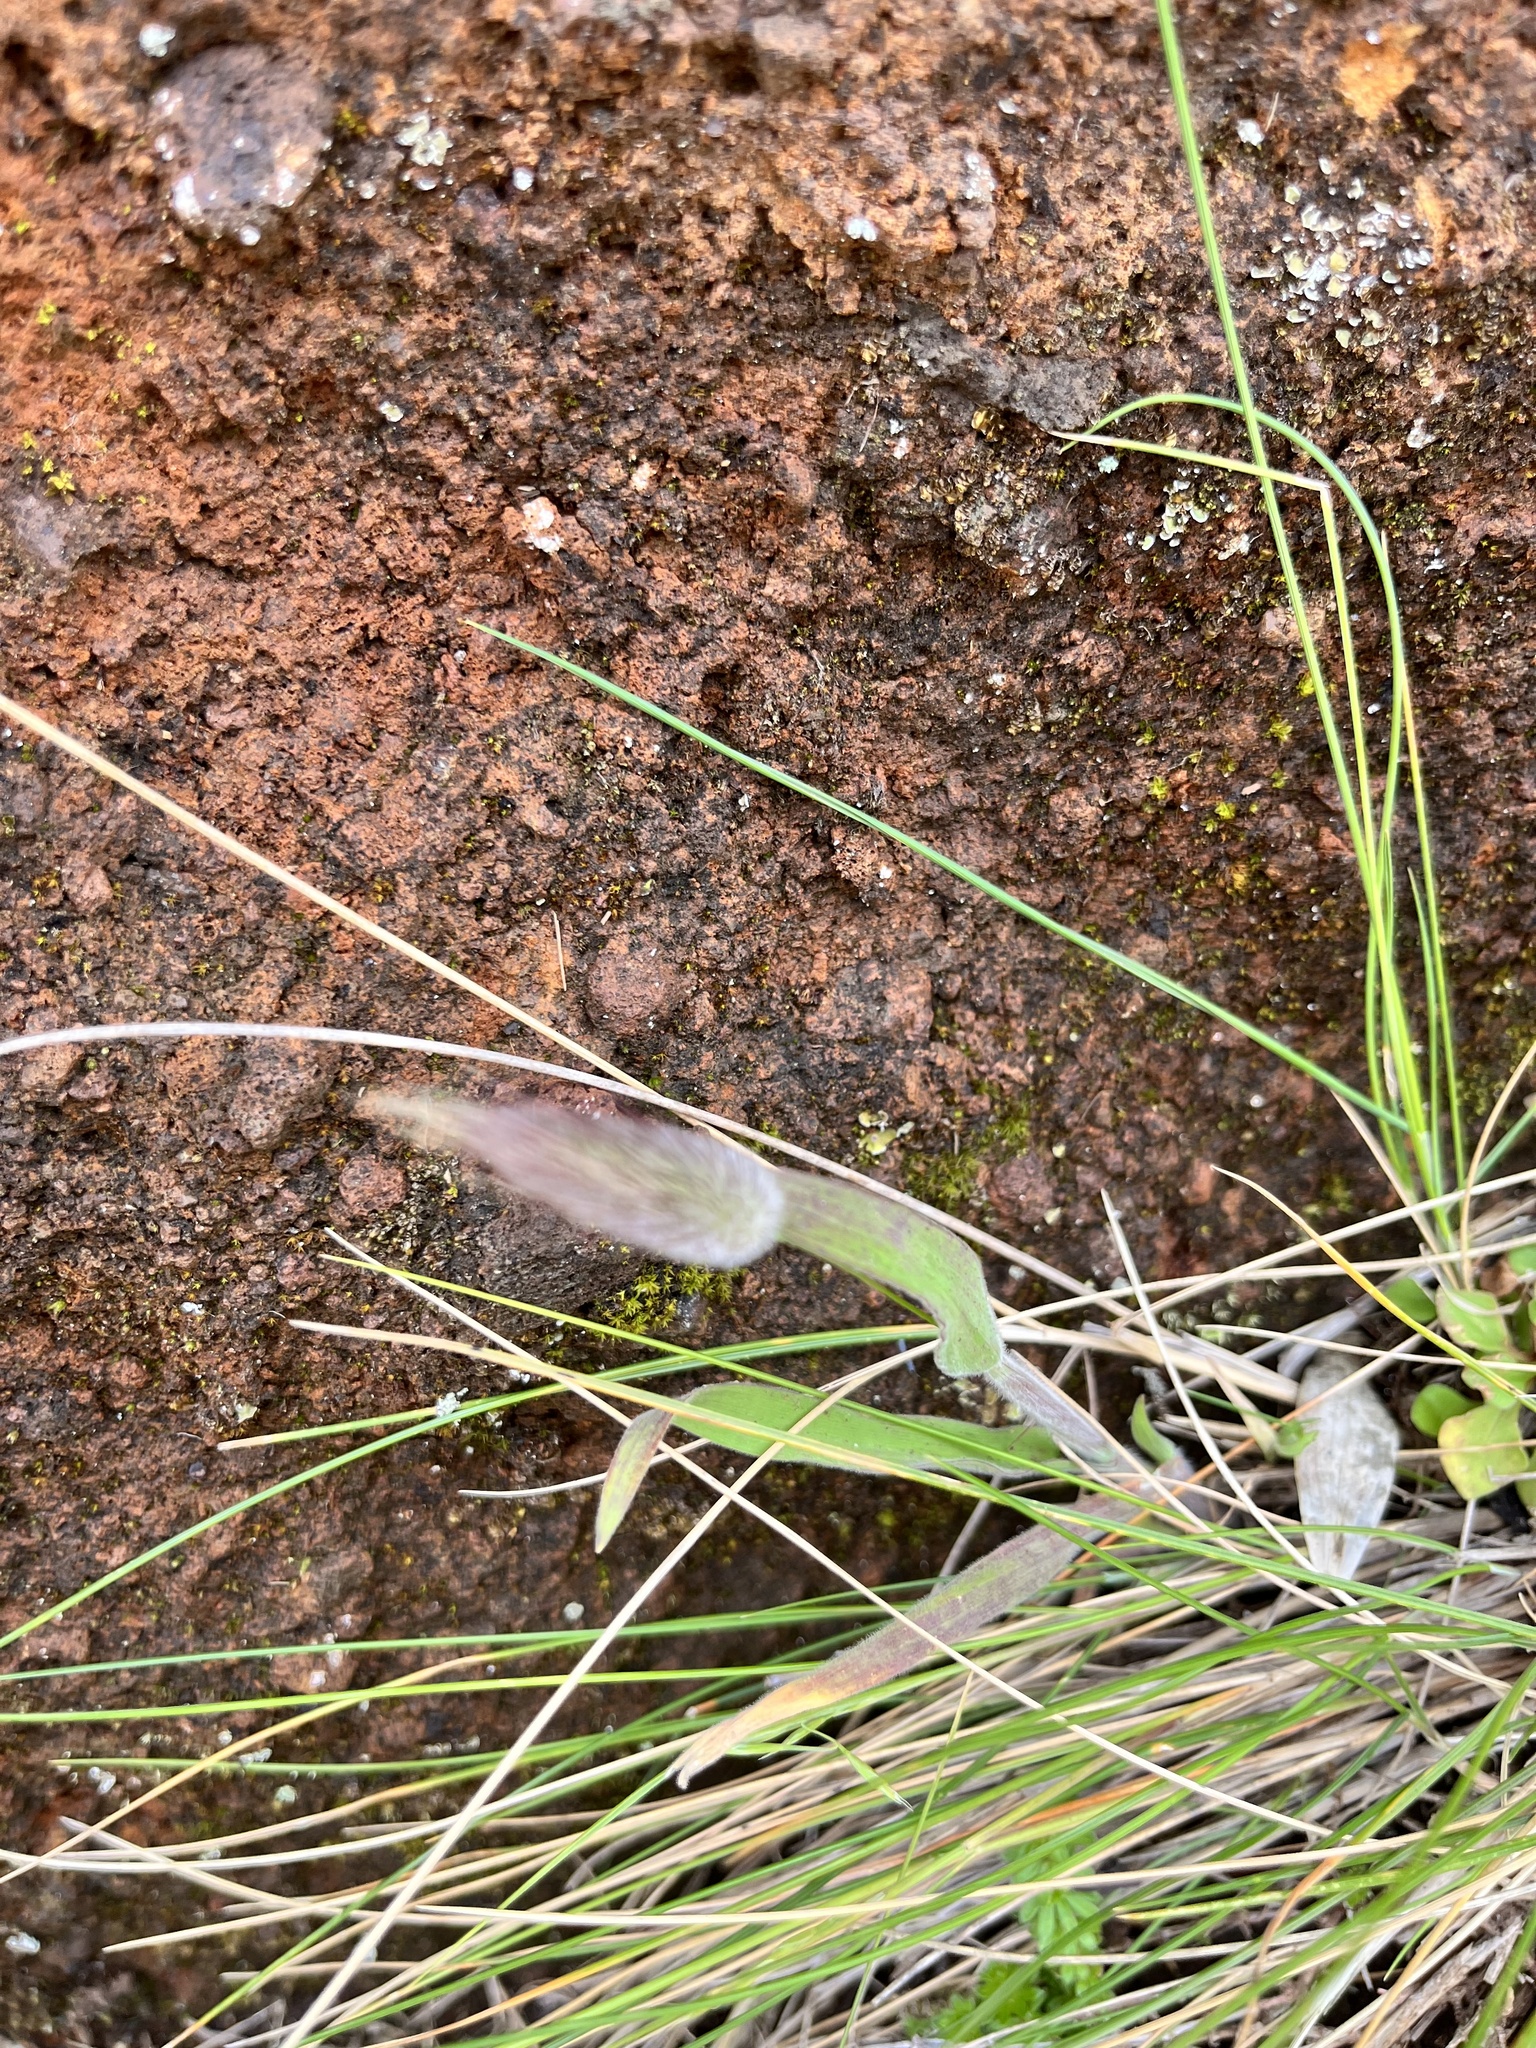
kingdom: Plantae
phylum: Tracheophyta
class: Liliopsida
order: Poales
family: Poaceae
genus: Lagurus
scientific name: Lagurus ovatus
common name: Hare's-tail
